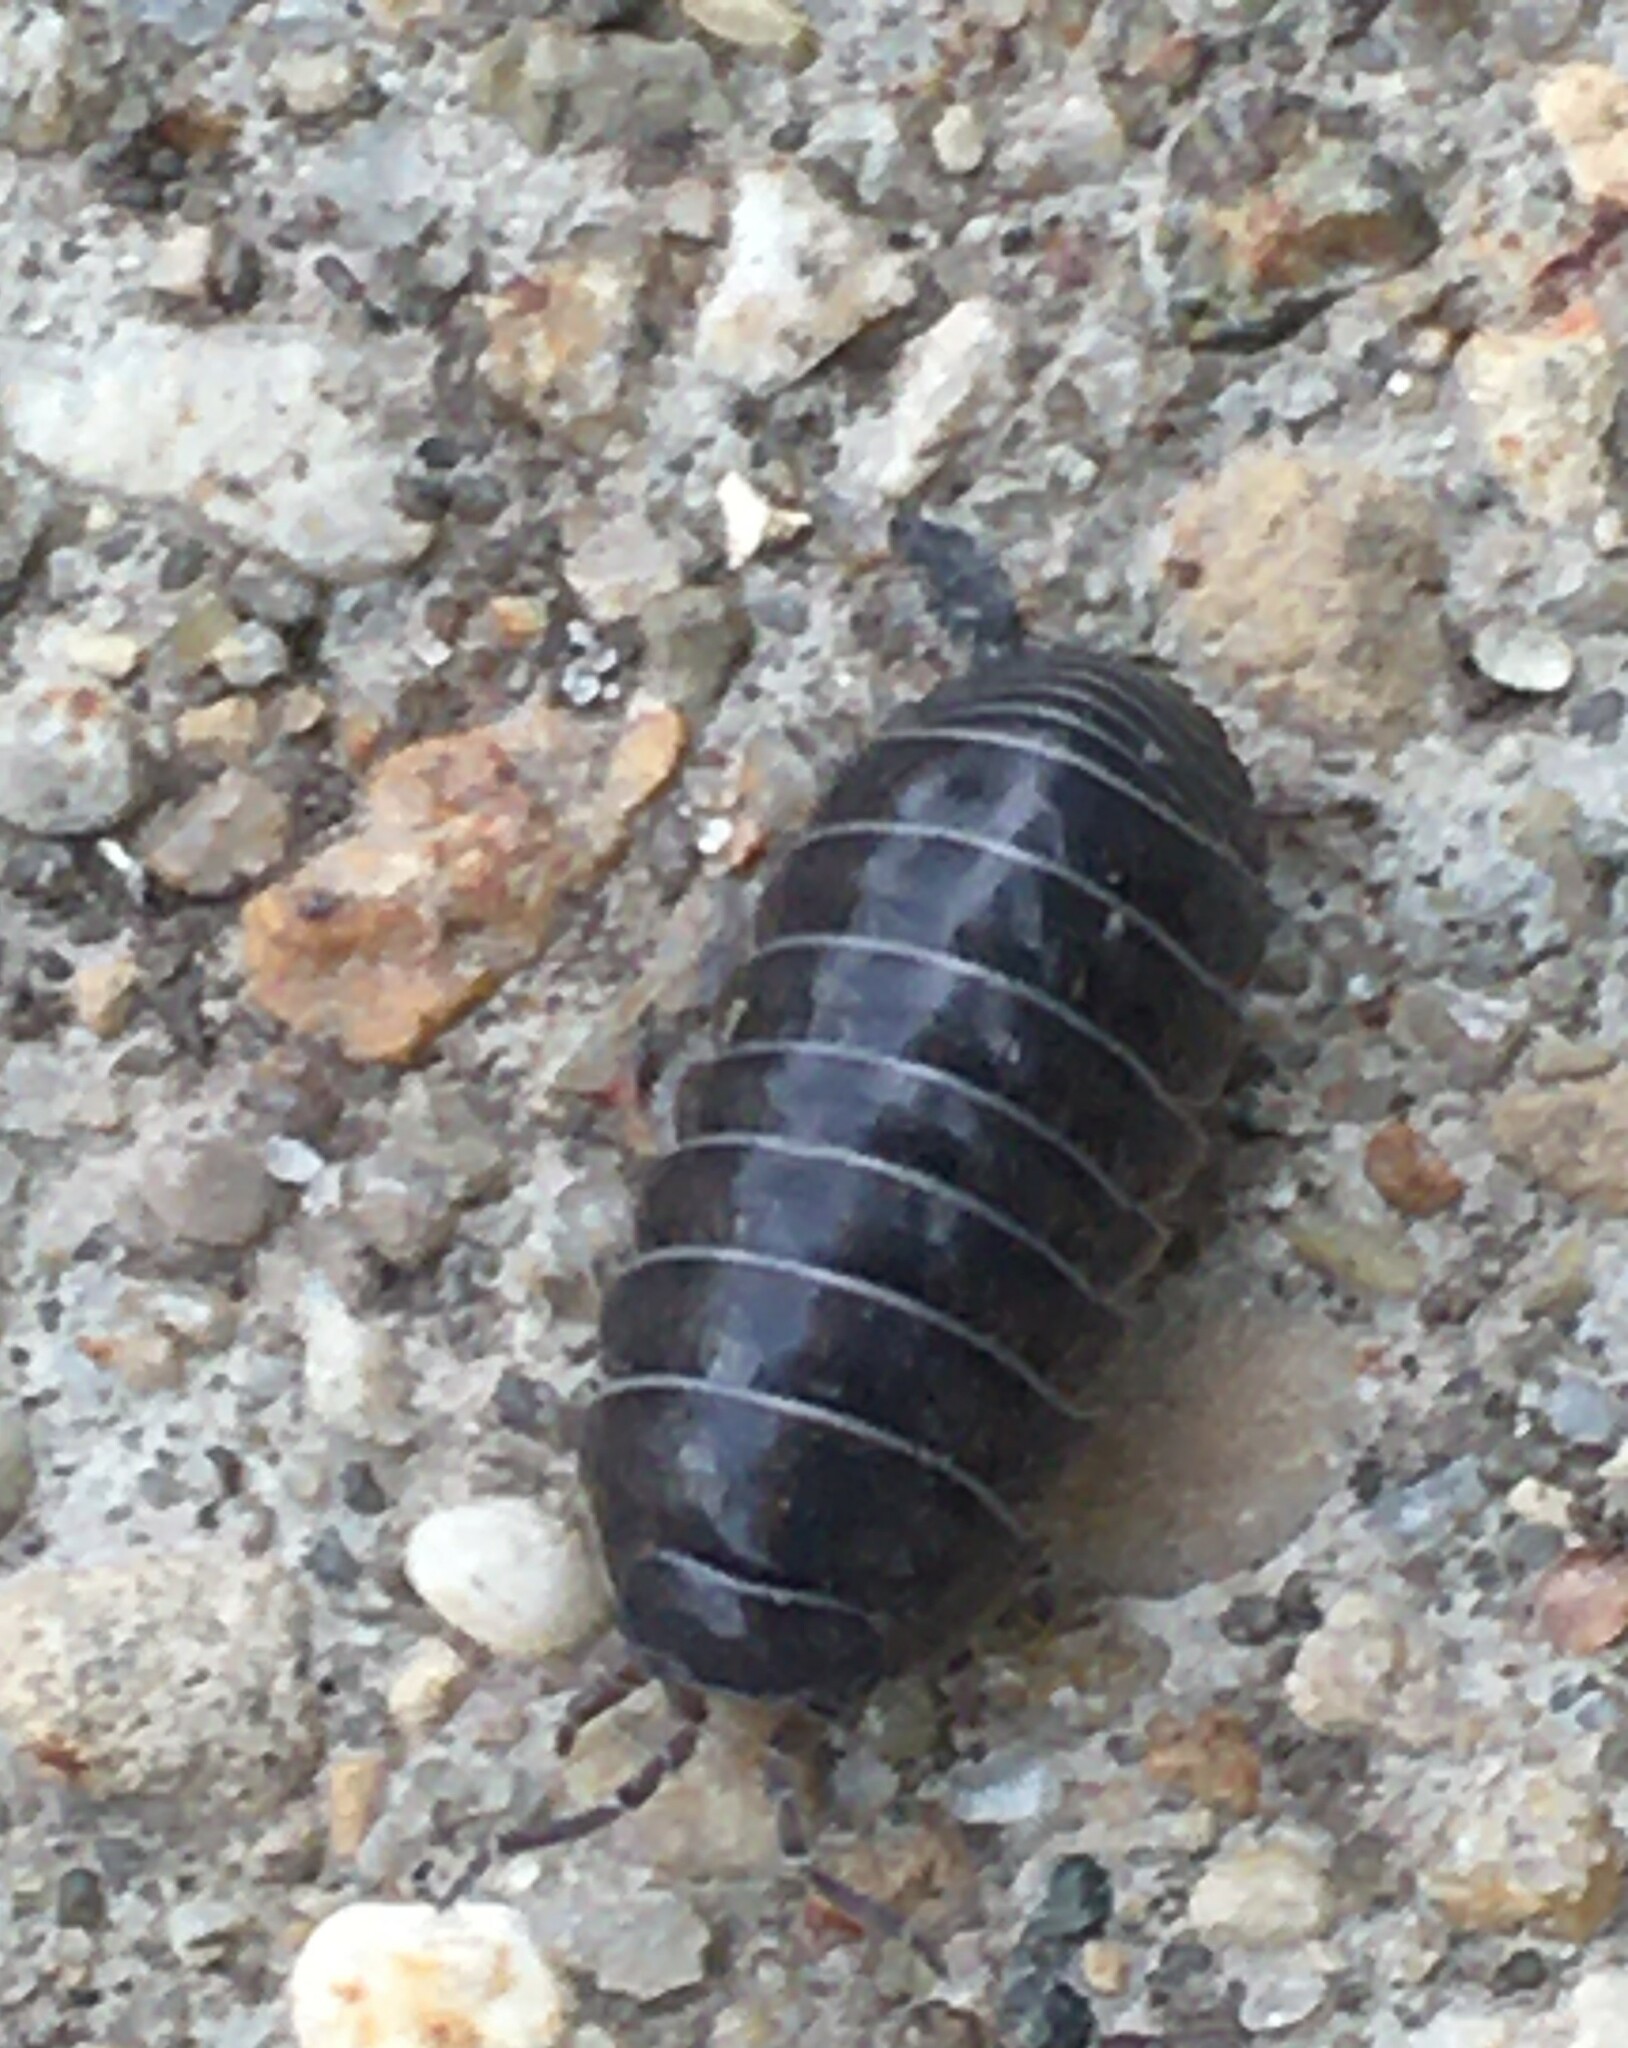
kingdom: Animalia
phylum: Arthropoda
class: Malacostraca
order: Isopoda
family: Armadillidiidae
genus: Armadillidium
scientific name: Armadillidium vulgare
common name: Common pill woodlouse
